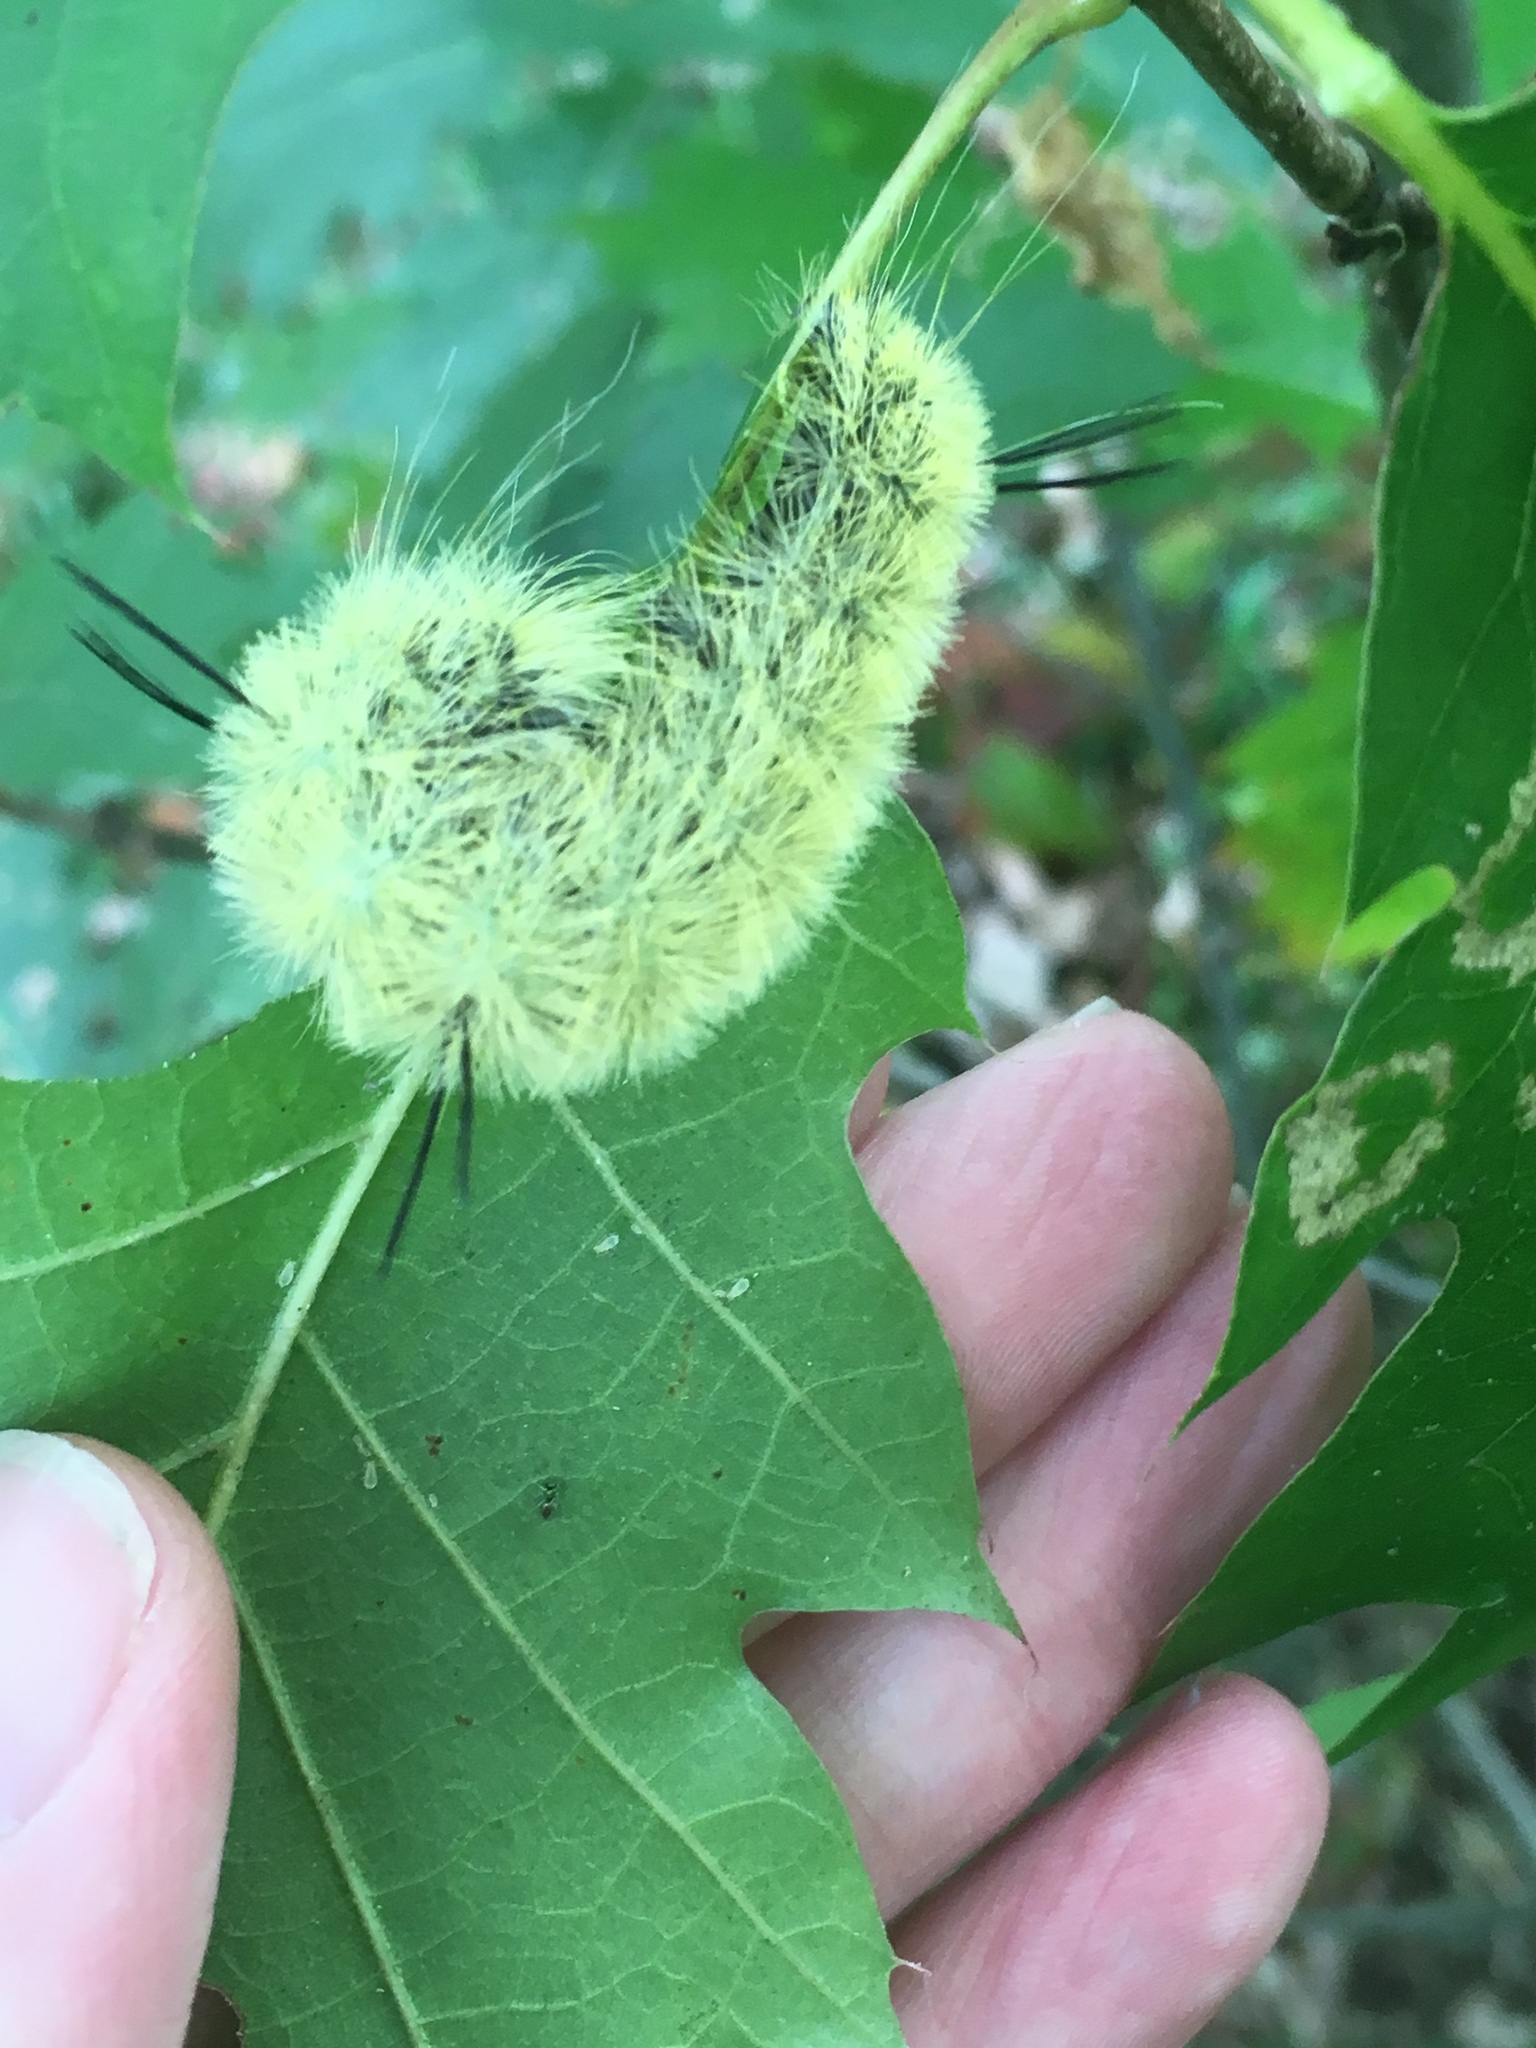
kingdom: Animalia
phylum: Arthropoda
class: Insecta
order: Lepidoptera
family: Noctuidae
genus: Acronicta
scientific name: Acronicta americana
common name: American dagger
